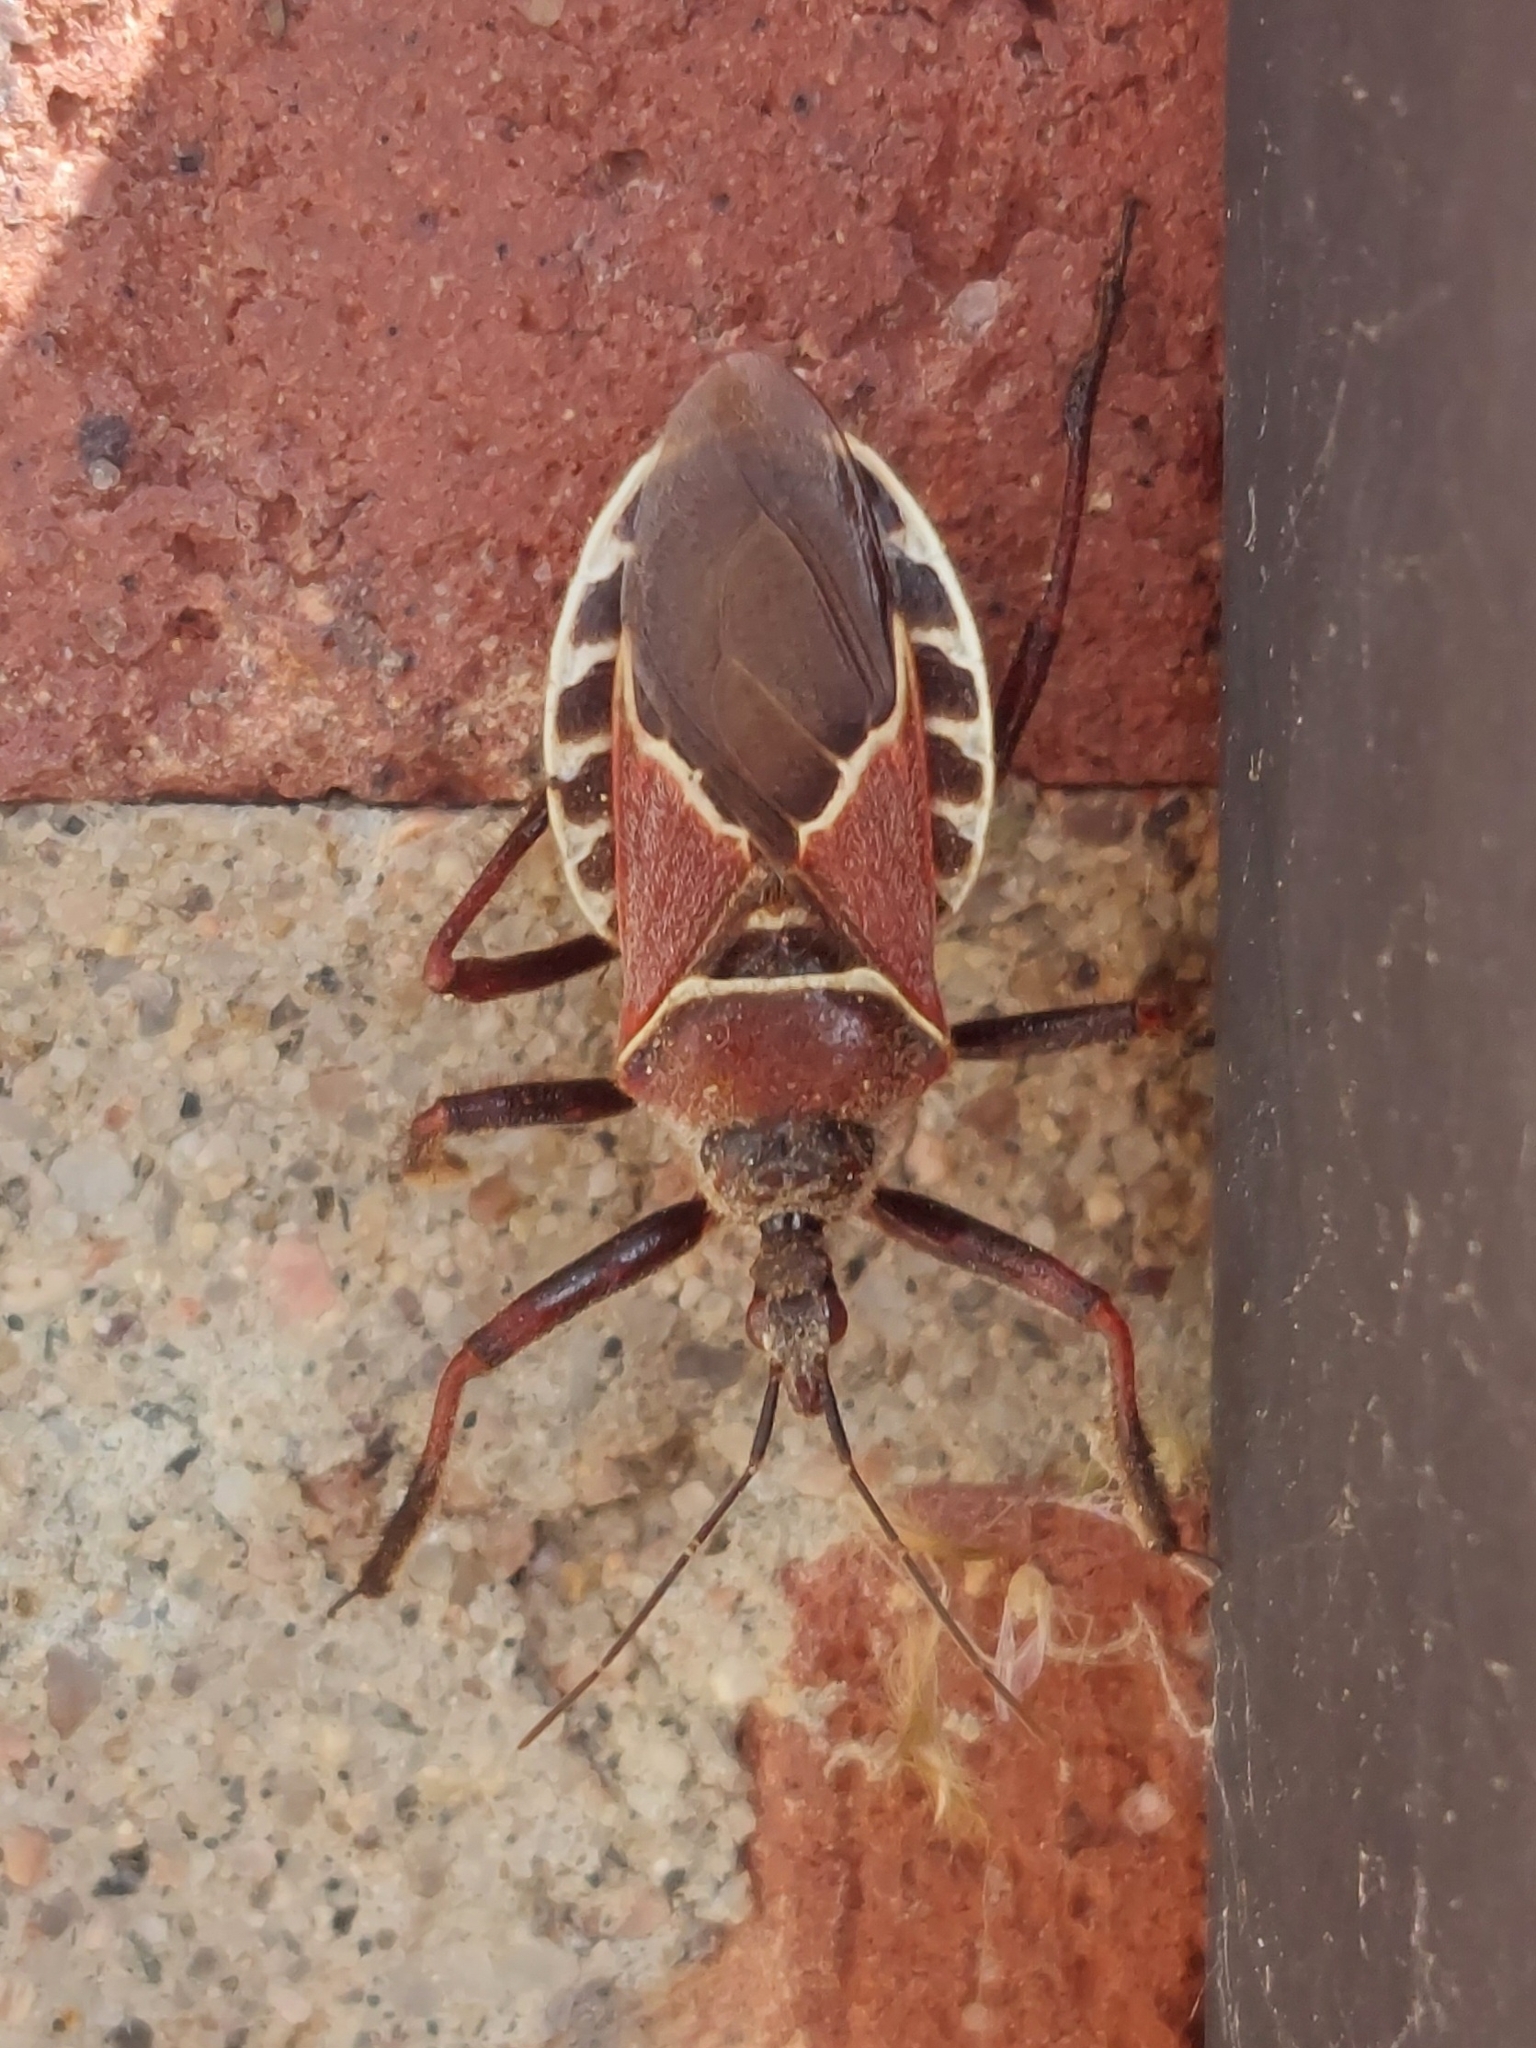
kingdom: Animalia
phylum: Arthropoda
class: Insecta
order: Hemiptera
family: Reduviidae
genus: Apiomerus
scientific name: Apiomerus spissipes
